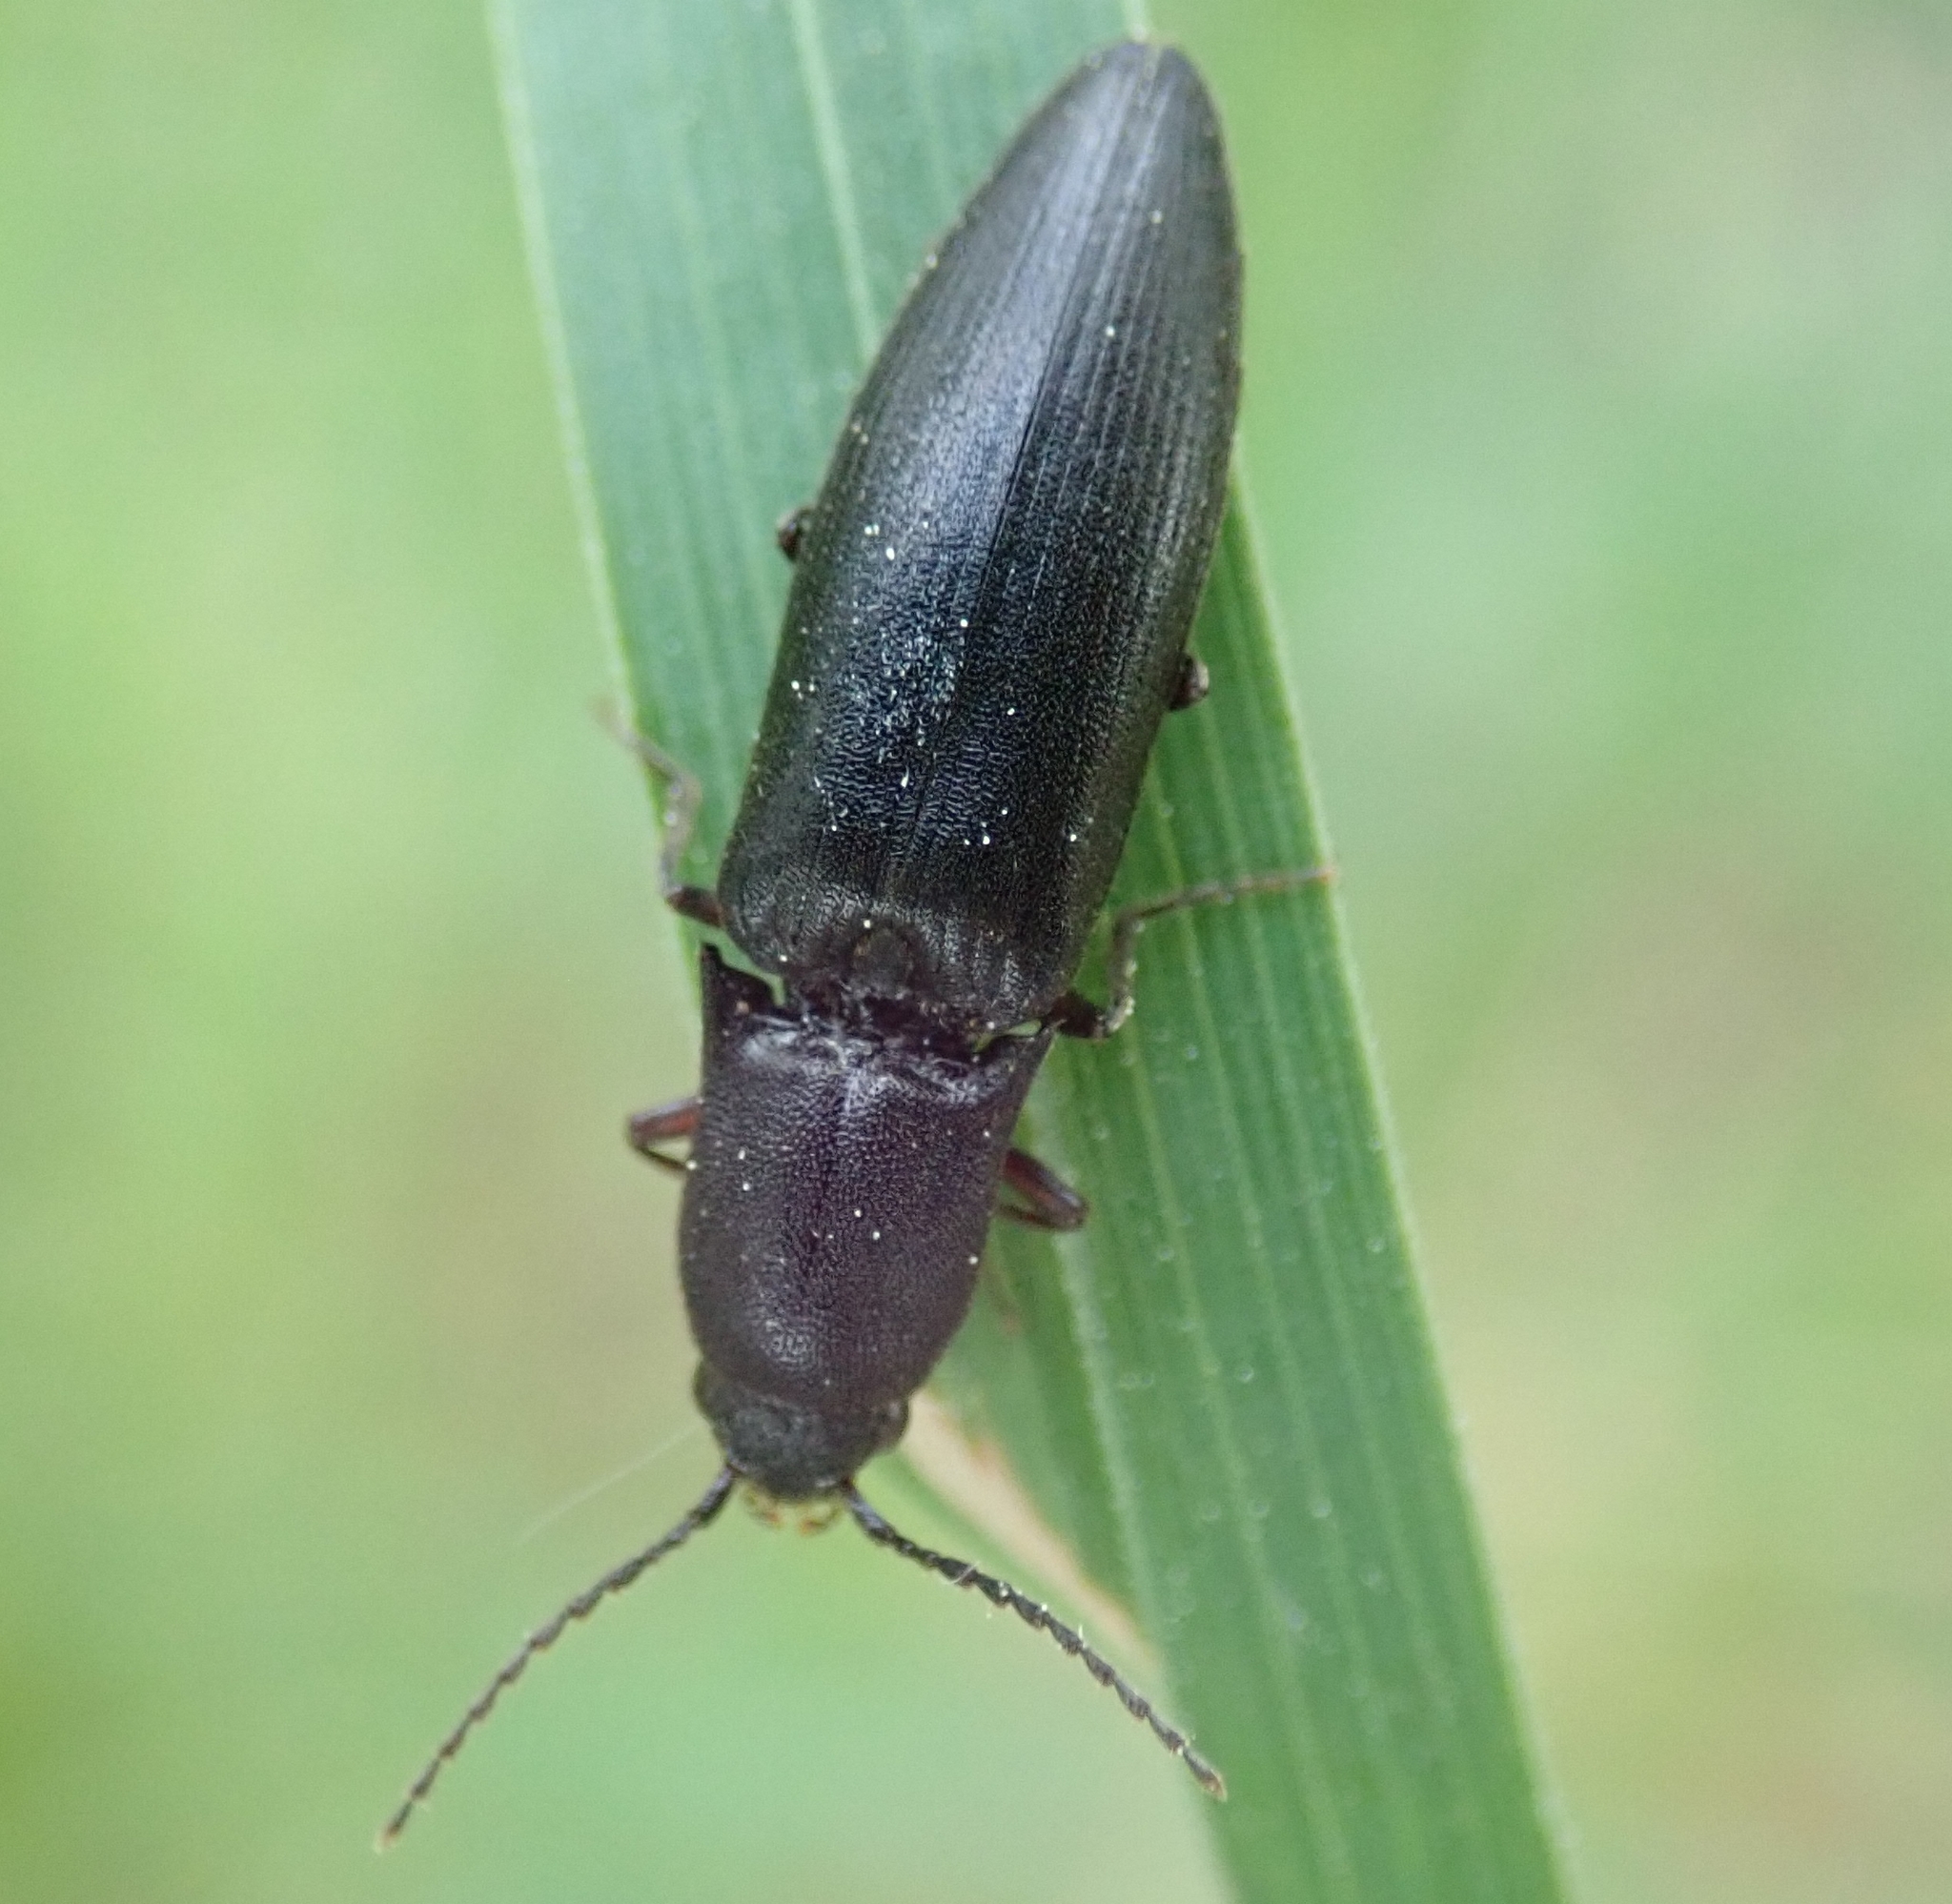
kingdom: Animalia
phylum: Arthropoda
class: Insecta
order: Coleoptera
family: Elateridae
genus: Ectinus
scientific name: Ectinus aterrimus
